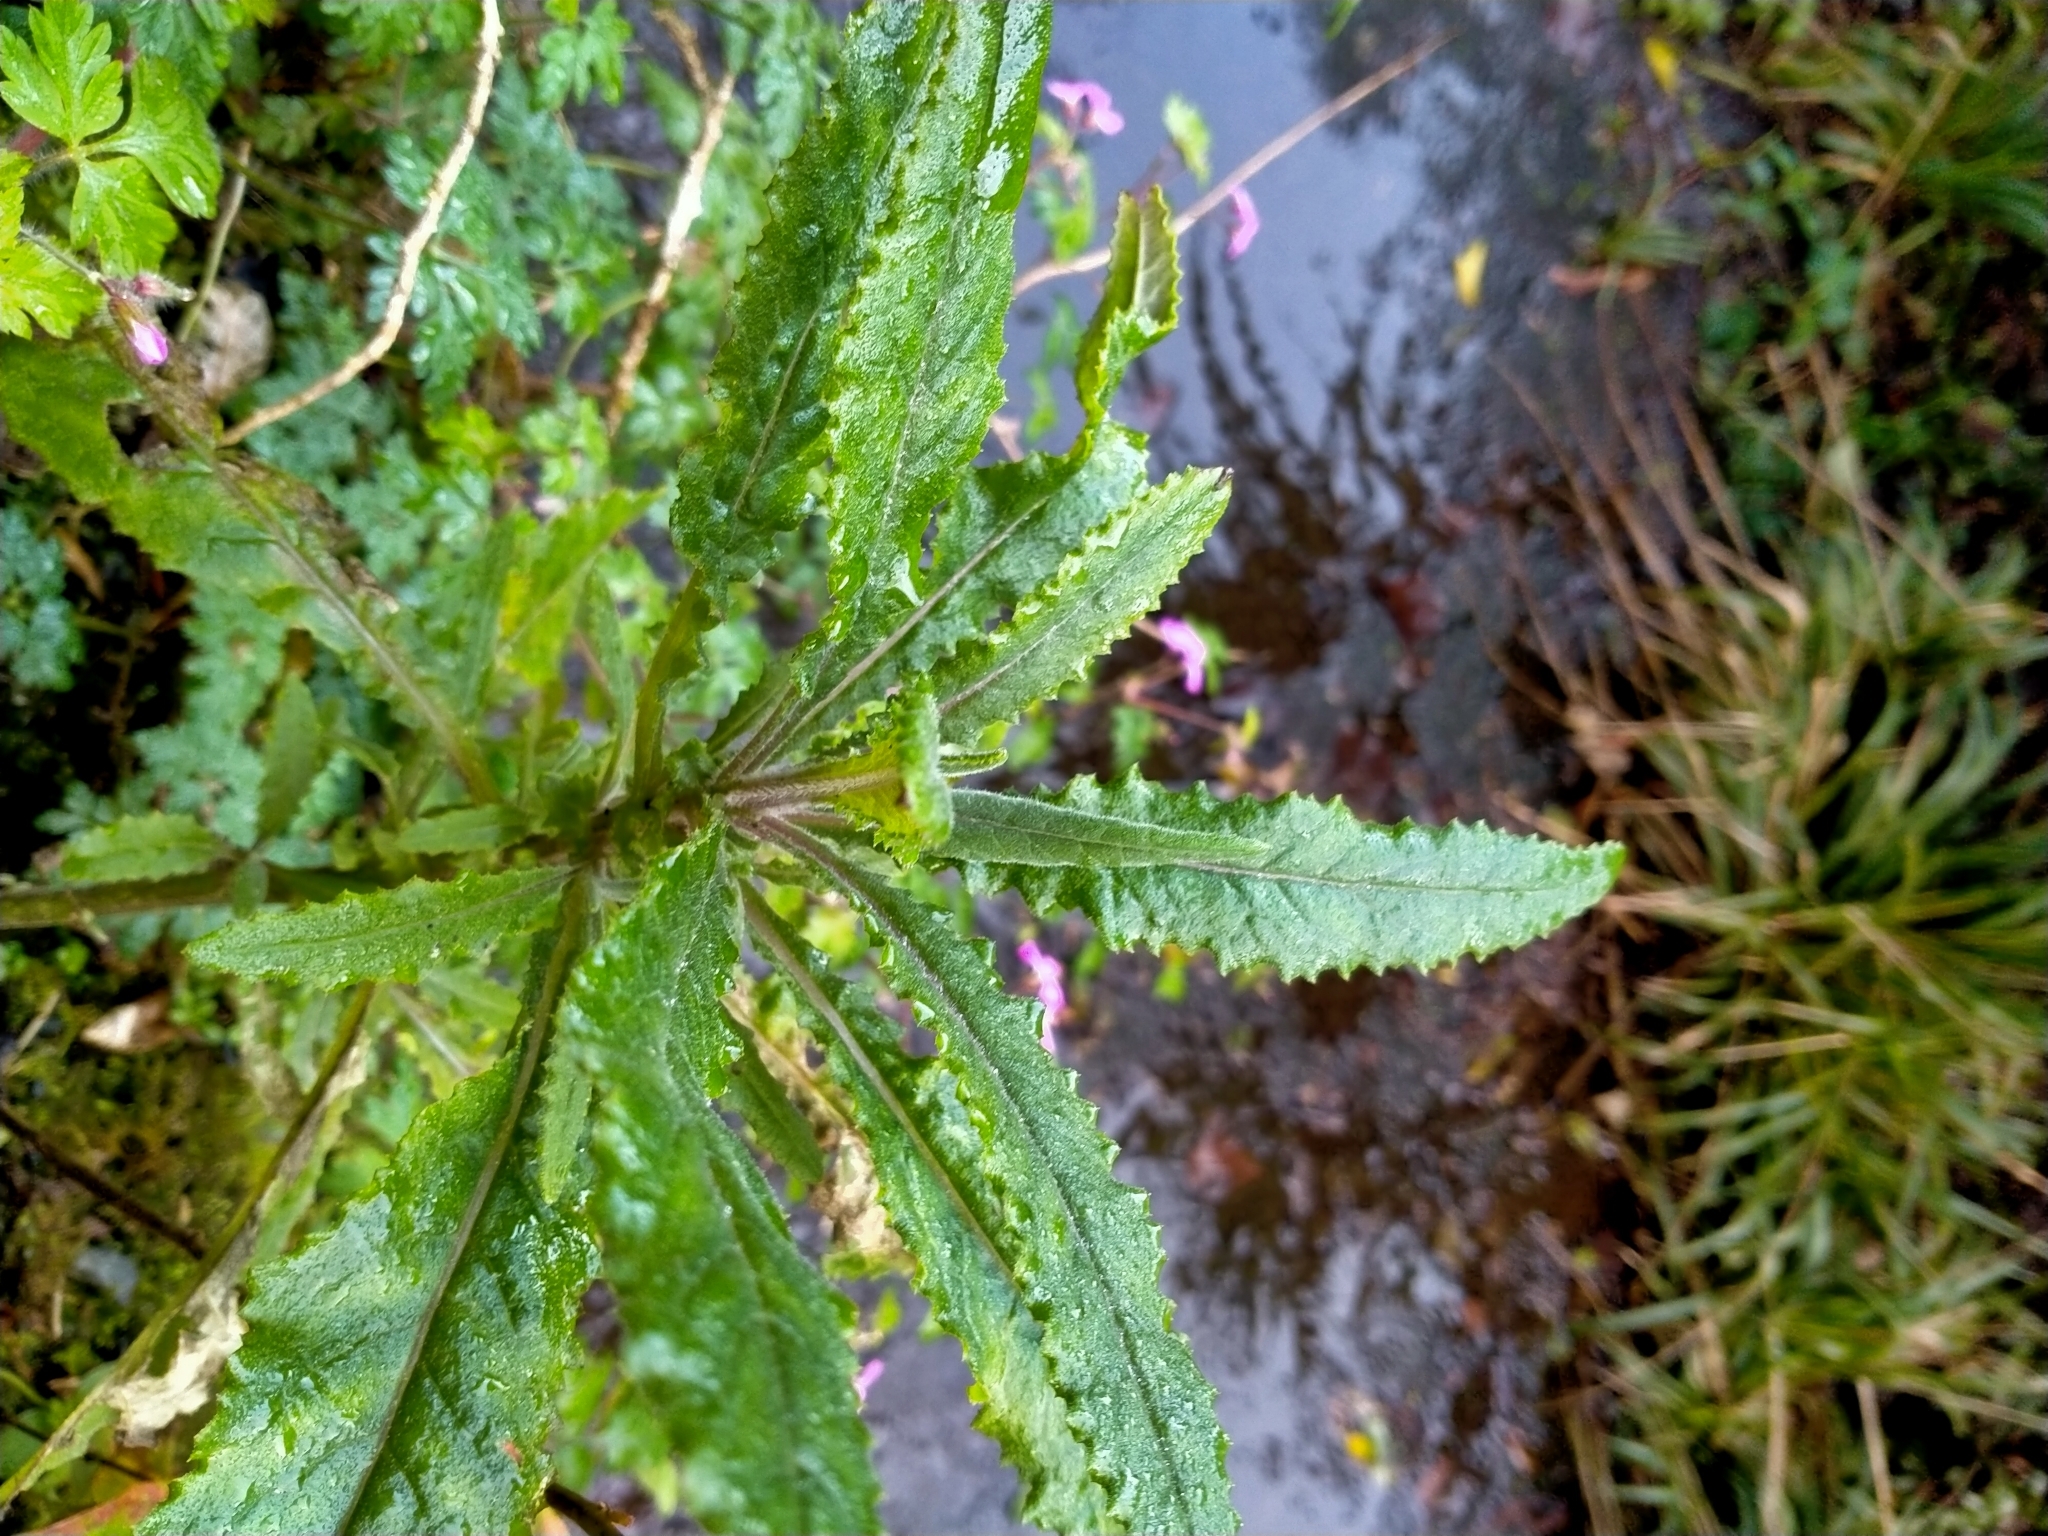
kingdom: Plantae
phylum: Tracheophyta
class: Magnoliopsida
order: Asterales
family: Asteraceae
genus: Senecio
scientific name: Senecio minimus
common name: Toothed fireweed
